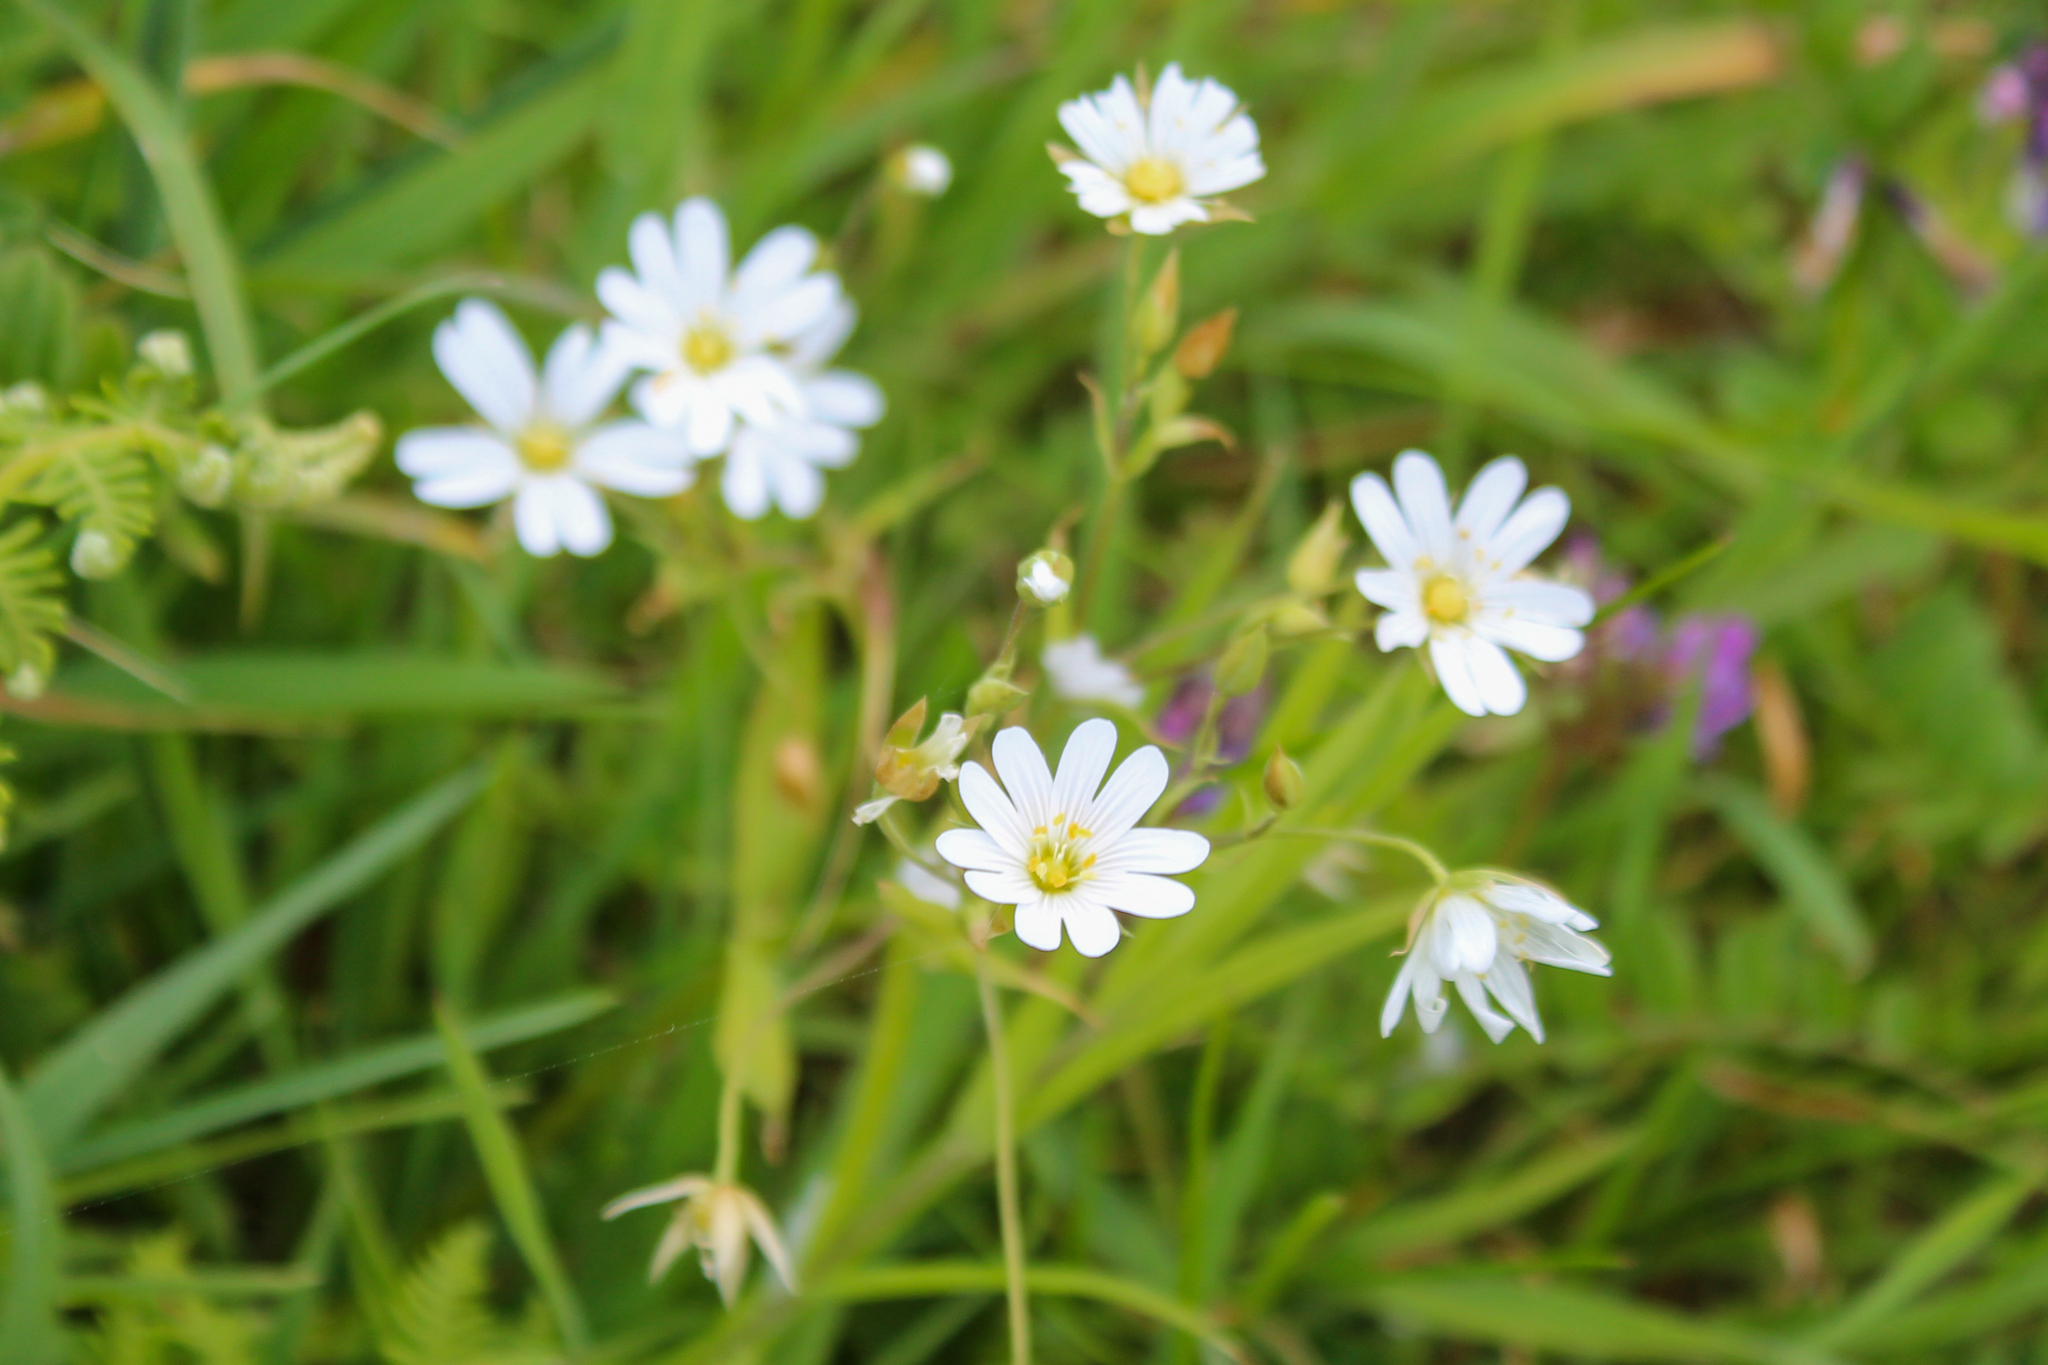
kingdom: Plantae
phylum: Tracheophyta
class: Magnoliopsida
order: Caryophyllales
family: Caryophyllaceae
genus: Rabelera
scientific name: Rabelera holostea
